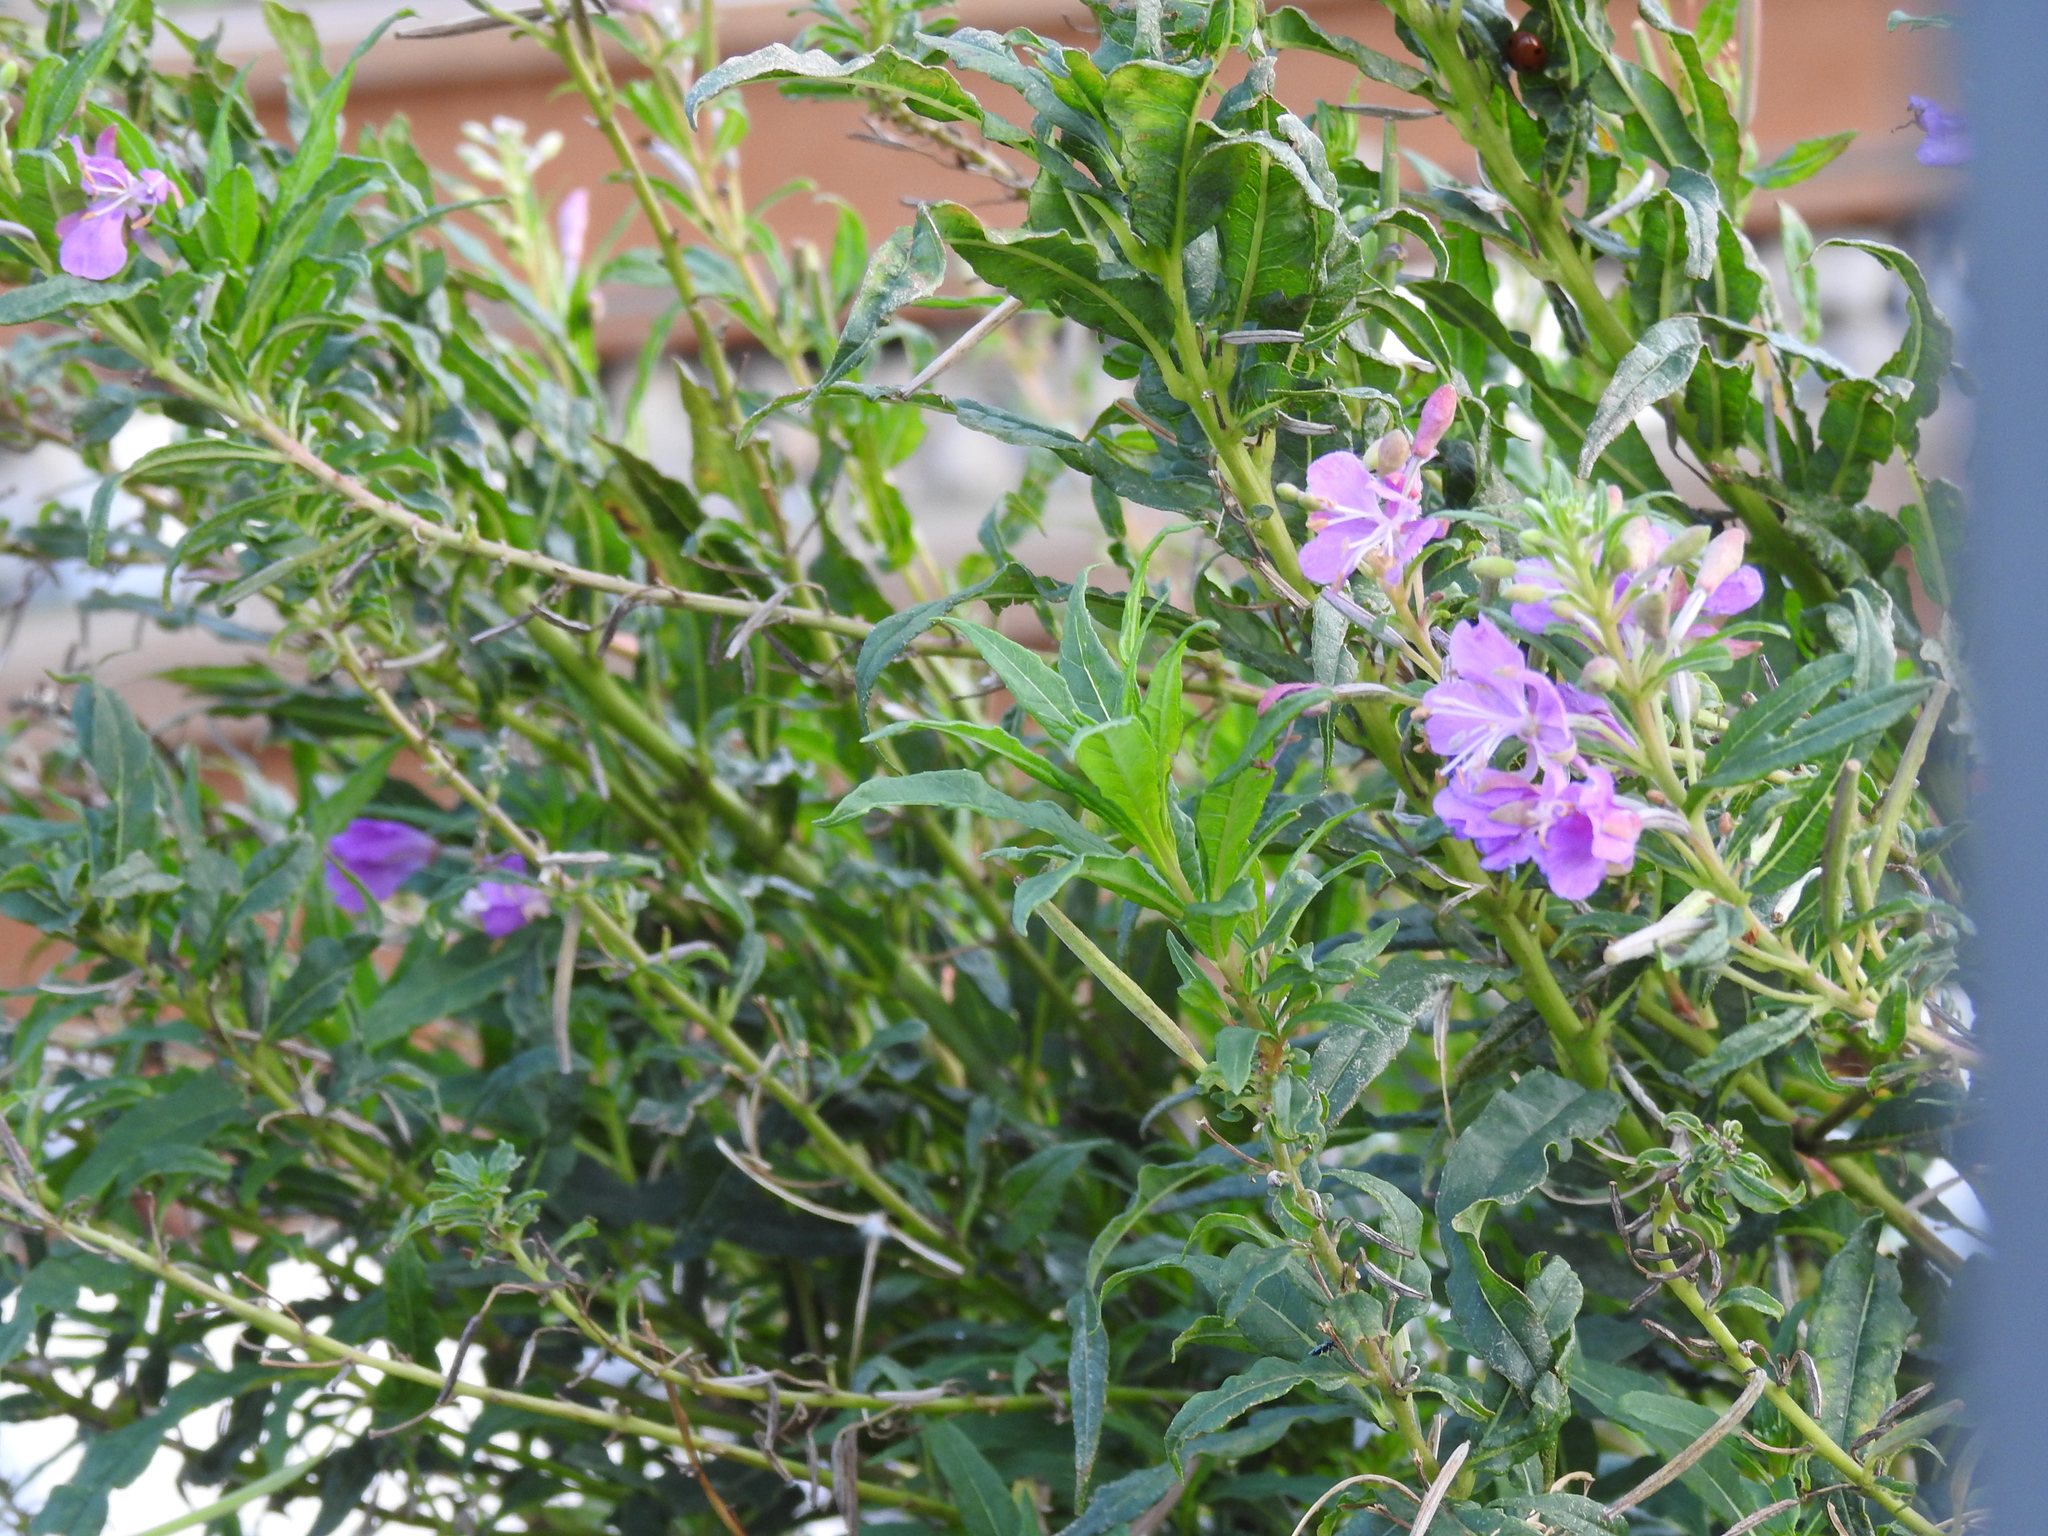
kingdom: Plantae
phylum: Tracheophyta
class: Magnoliopsida
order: Myrtales
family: Onagraceae
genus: Chamaenerion
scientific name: Chamaenerion angustifolium
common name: Fireweed
